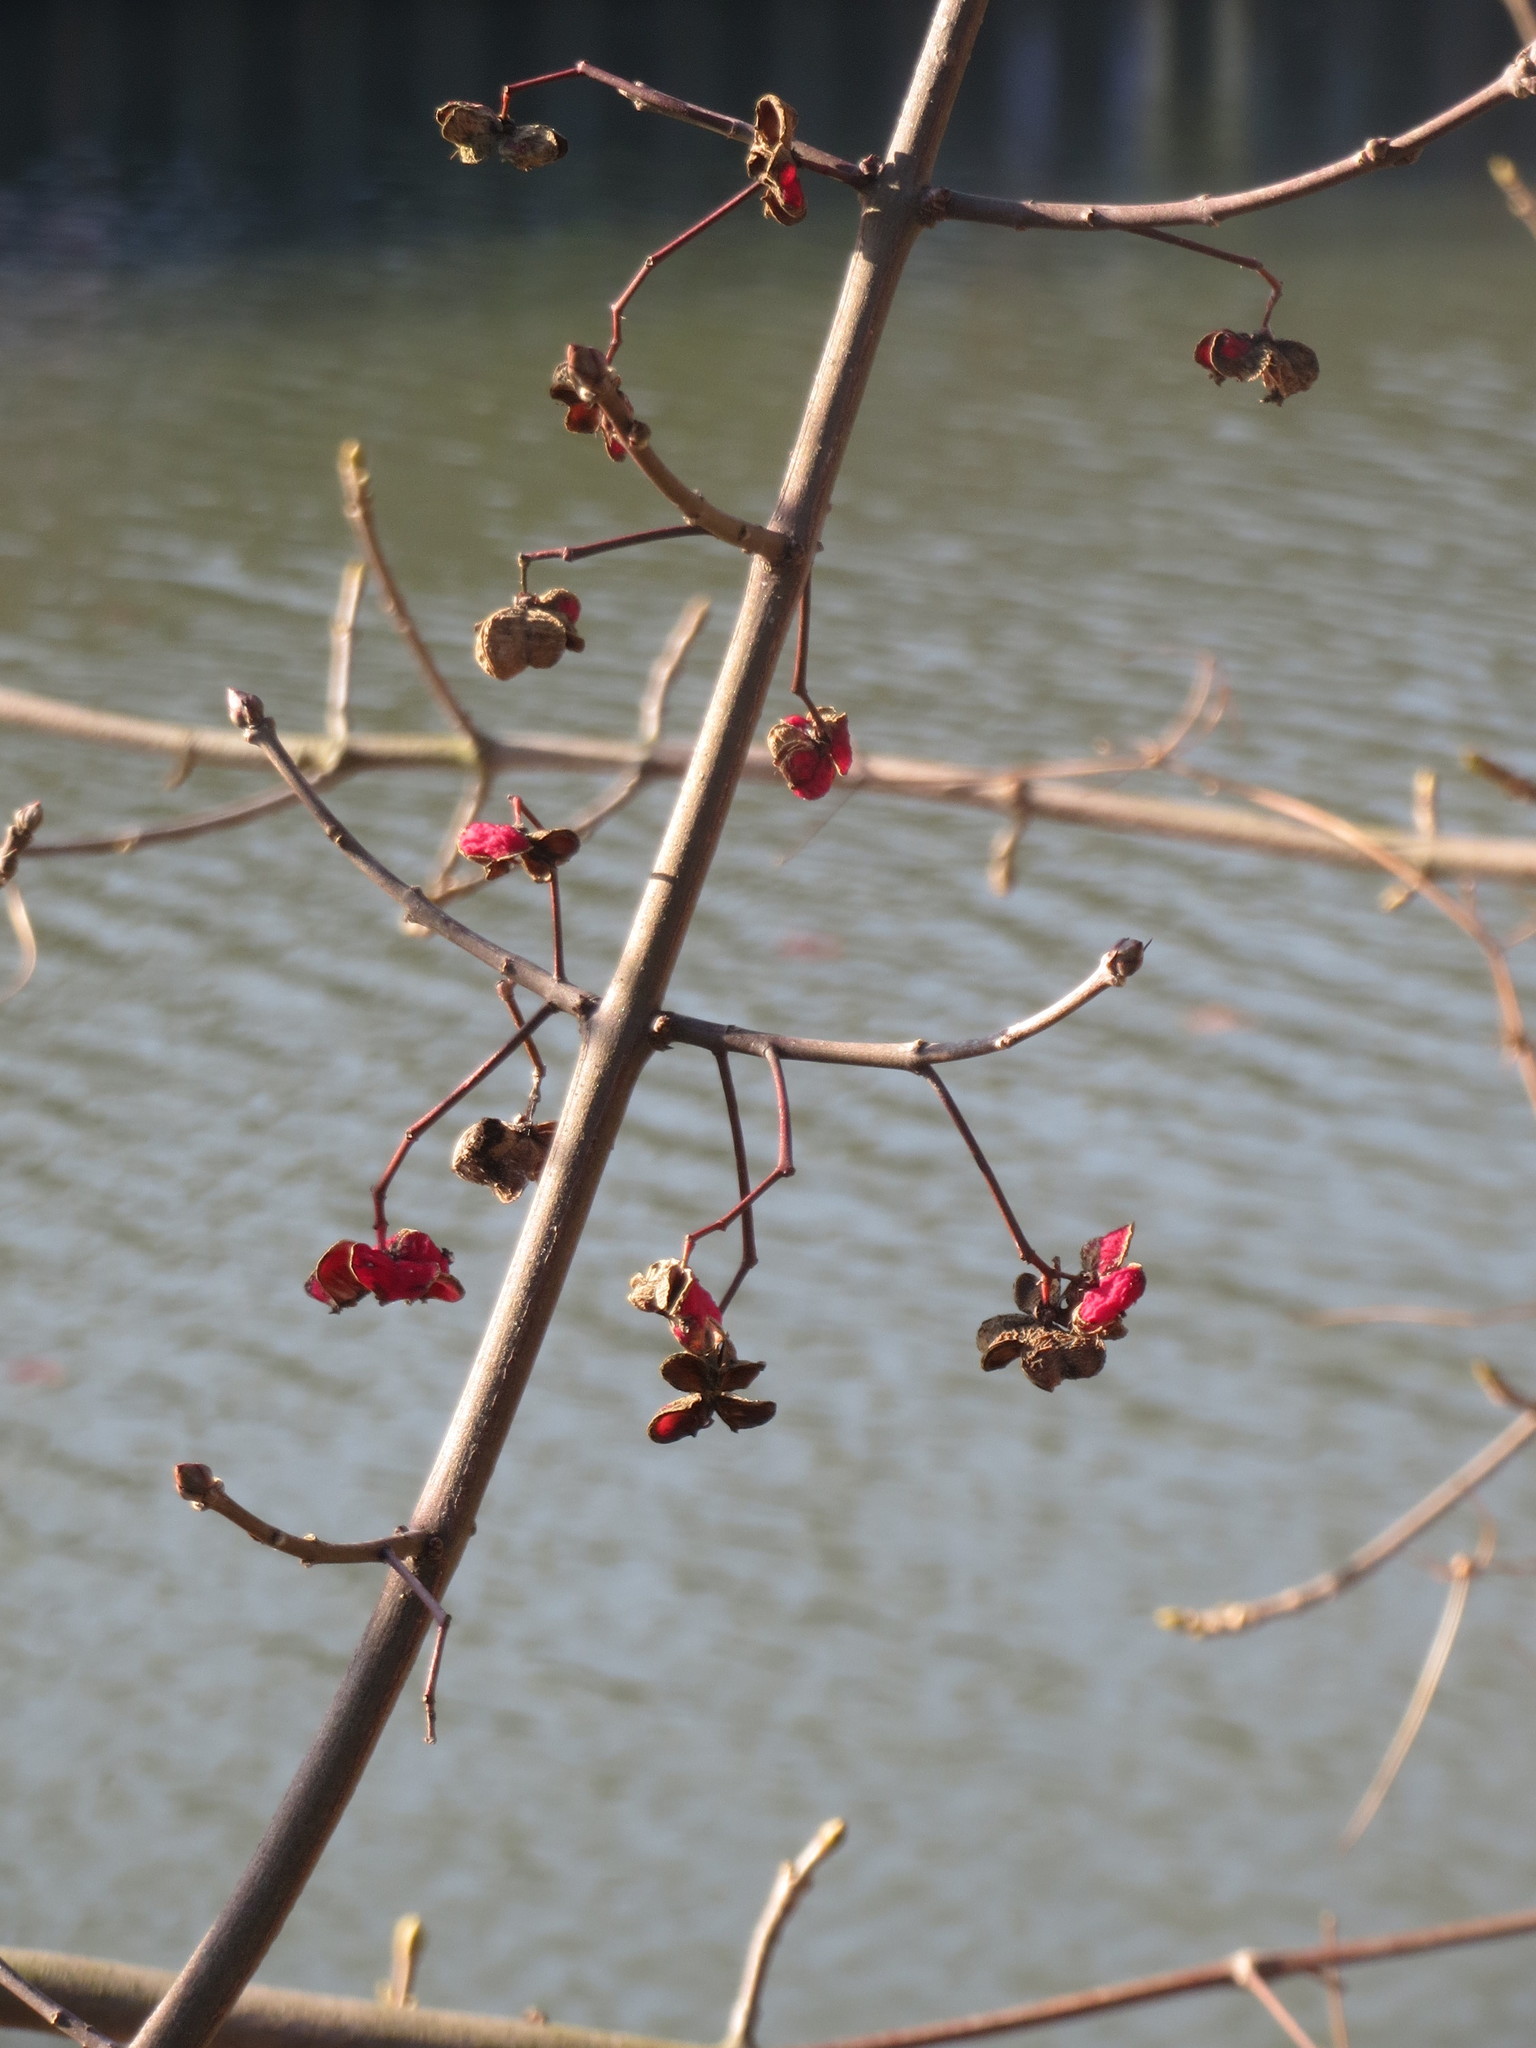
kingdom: Plantae
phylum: Tracheophyta
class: Magnoliopsida
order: Celastrales
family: Celastraceae
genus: Euonymus
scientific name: Euonymus europaeus
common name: Spindle
